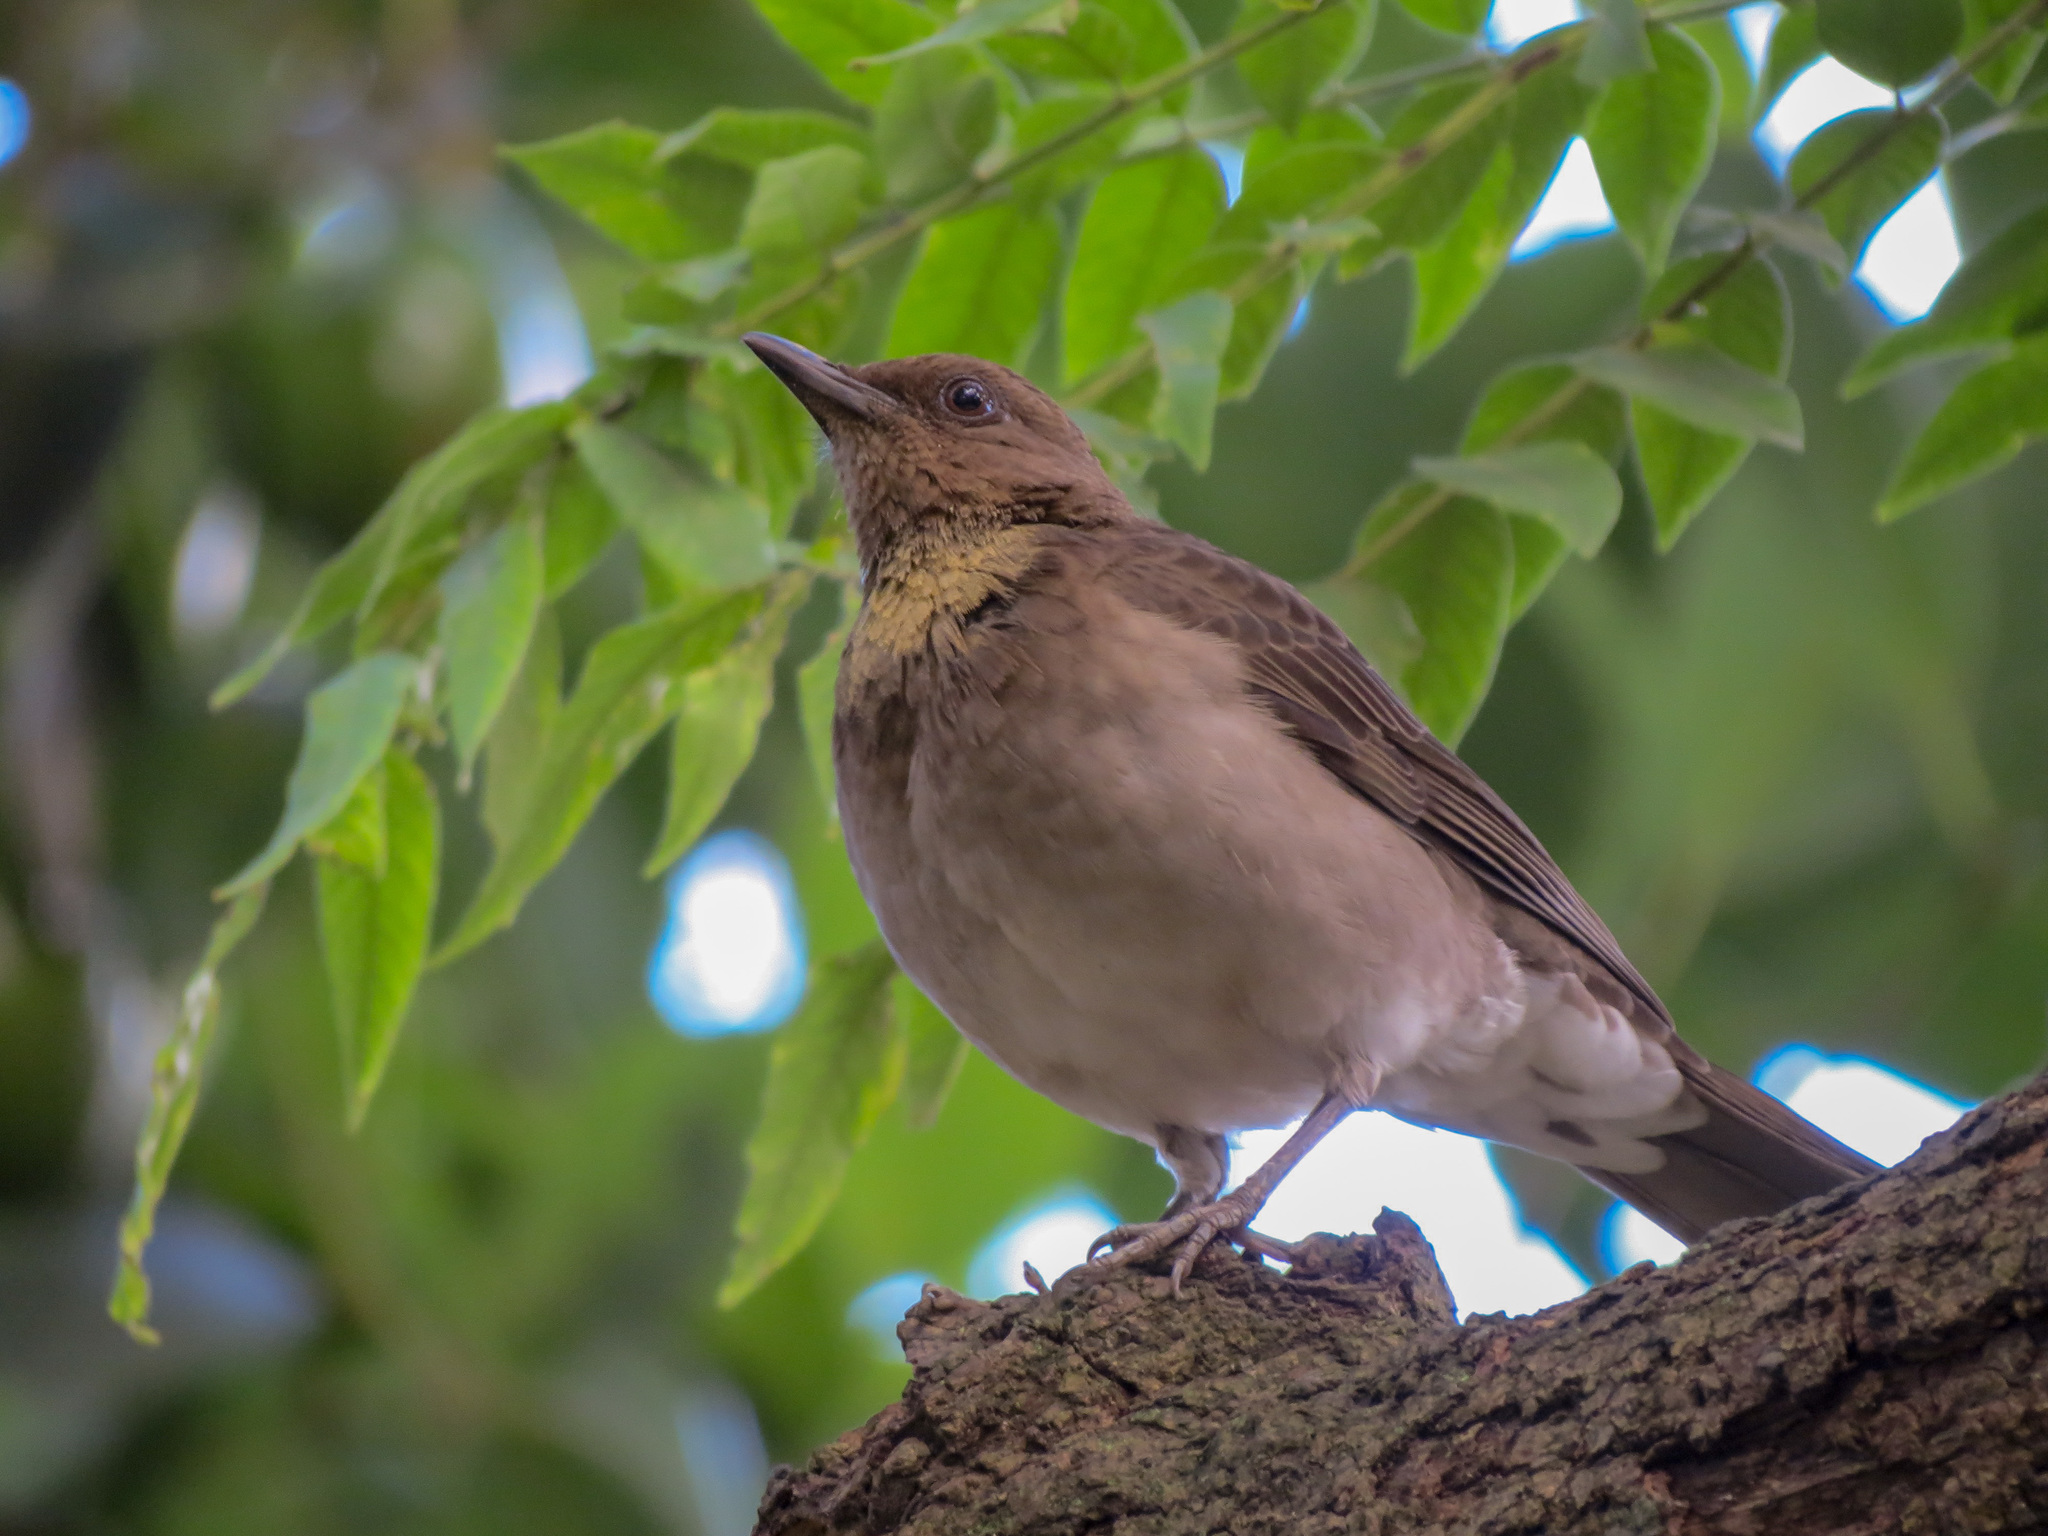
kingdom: Animalia
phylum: Chordata
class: Aves
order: Passeriformes
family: Turdidae
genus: Turdus
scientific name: Turdus ignobilis
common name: Black-billed thrush
